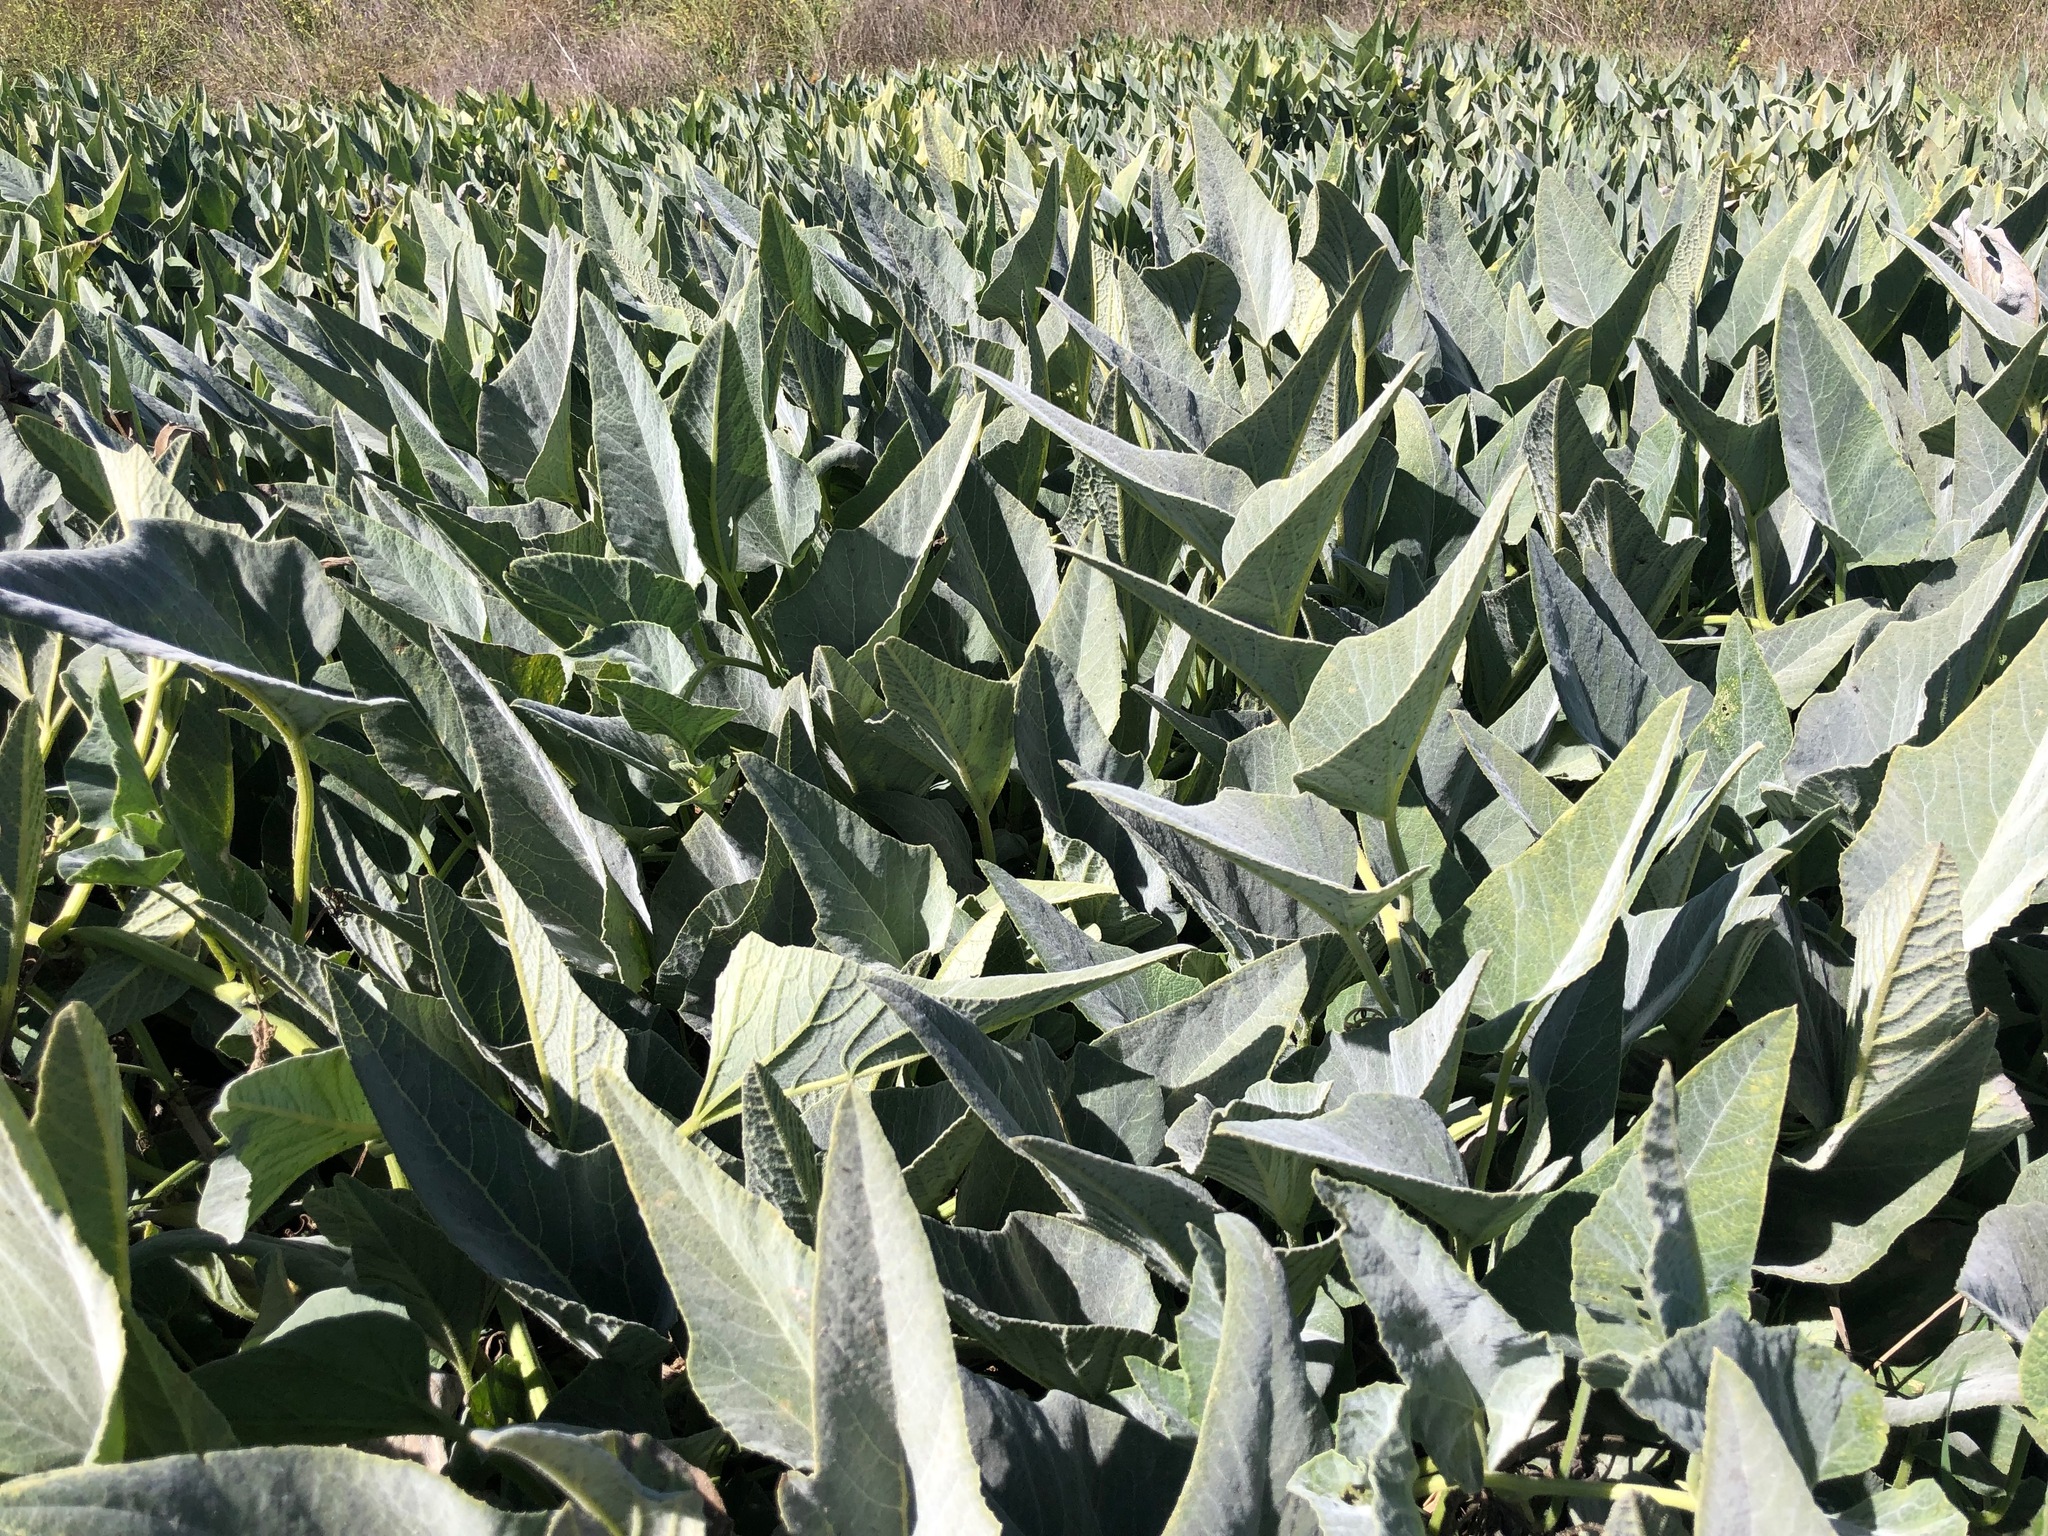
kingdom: Plantae
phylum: Tracheophyta
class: Magnoliopsida
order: Cucurbitales
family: Cucurbitaceae
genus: Cucurbita
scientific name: Cucurbita foetidissima
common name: Buffalo gourd
